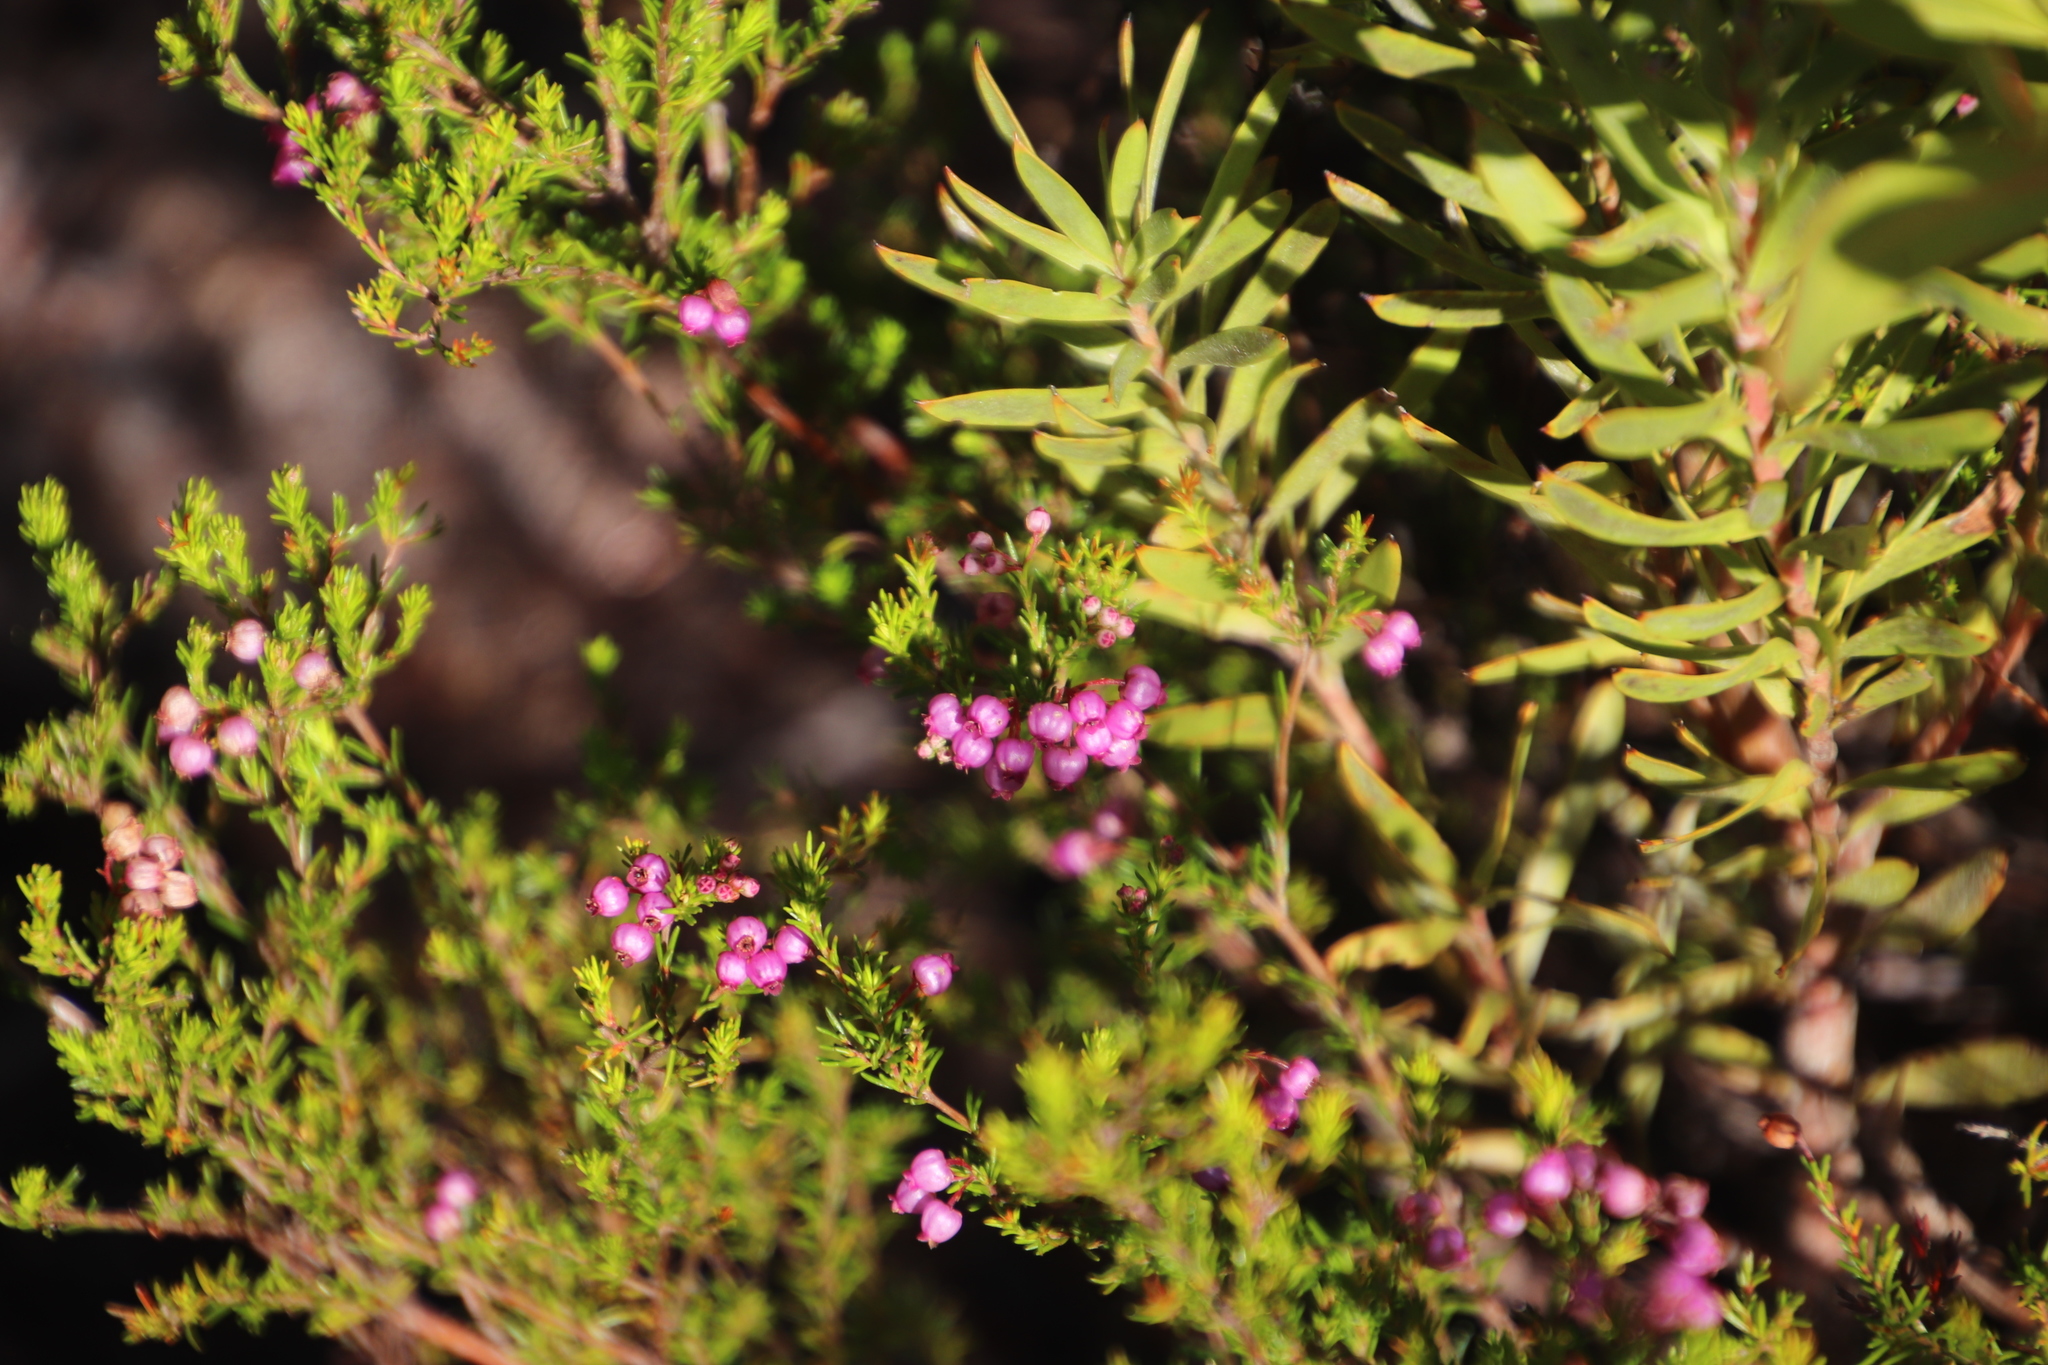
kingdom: Plantae
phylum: Tracheophyta
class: Magnoliopsida
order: Ericales
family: Ericaceae
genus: Erica
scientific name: Erica multumbellifera
